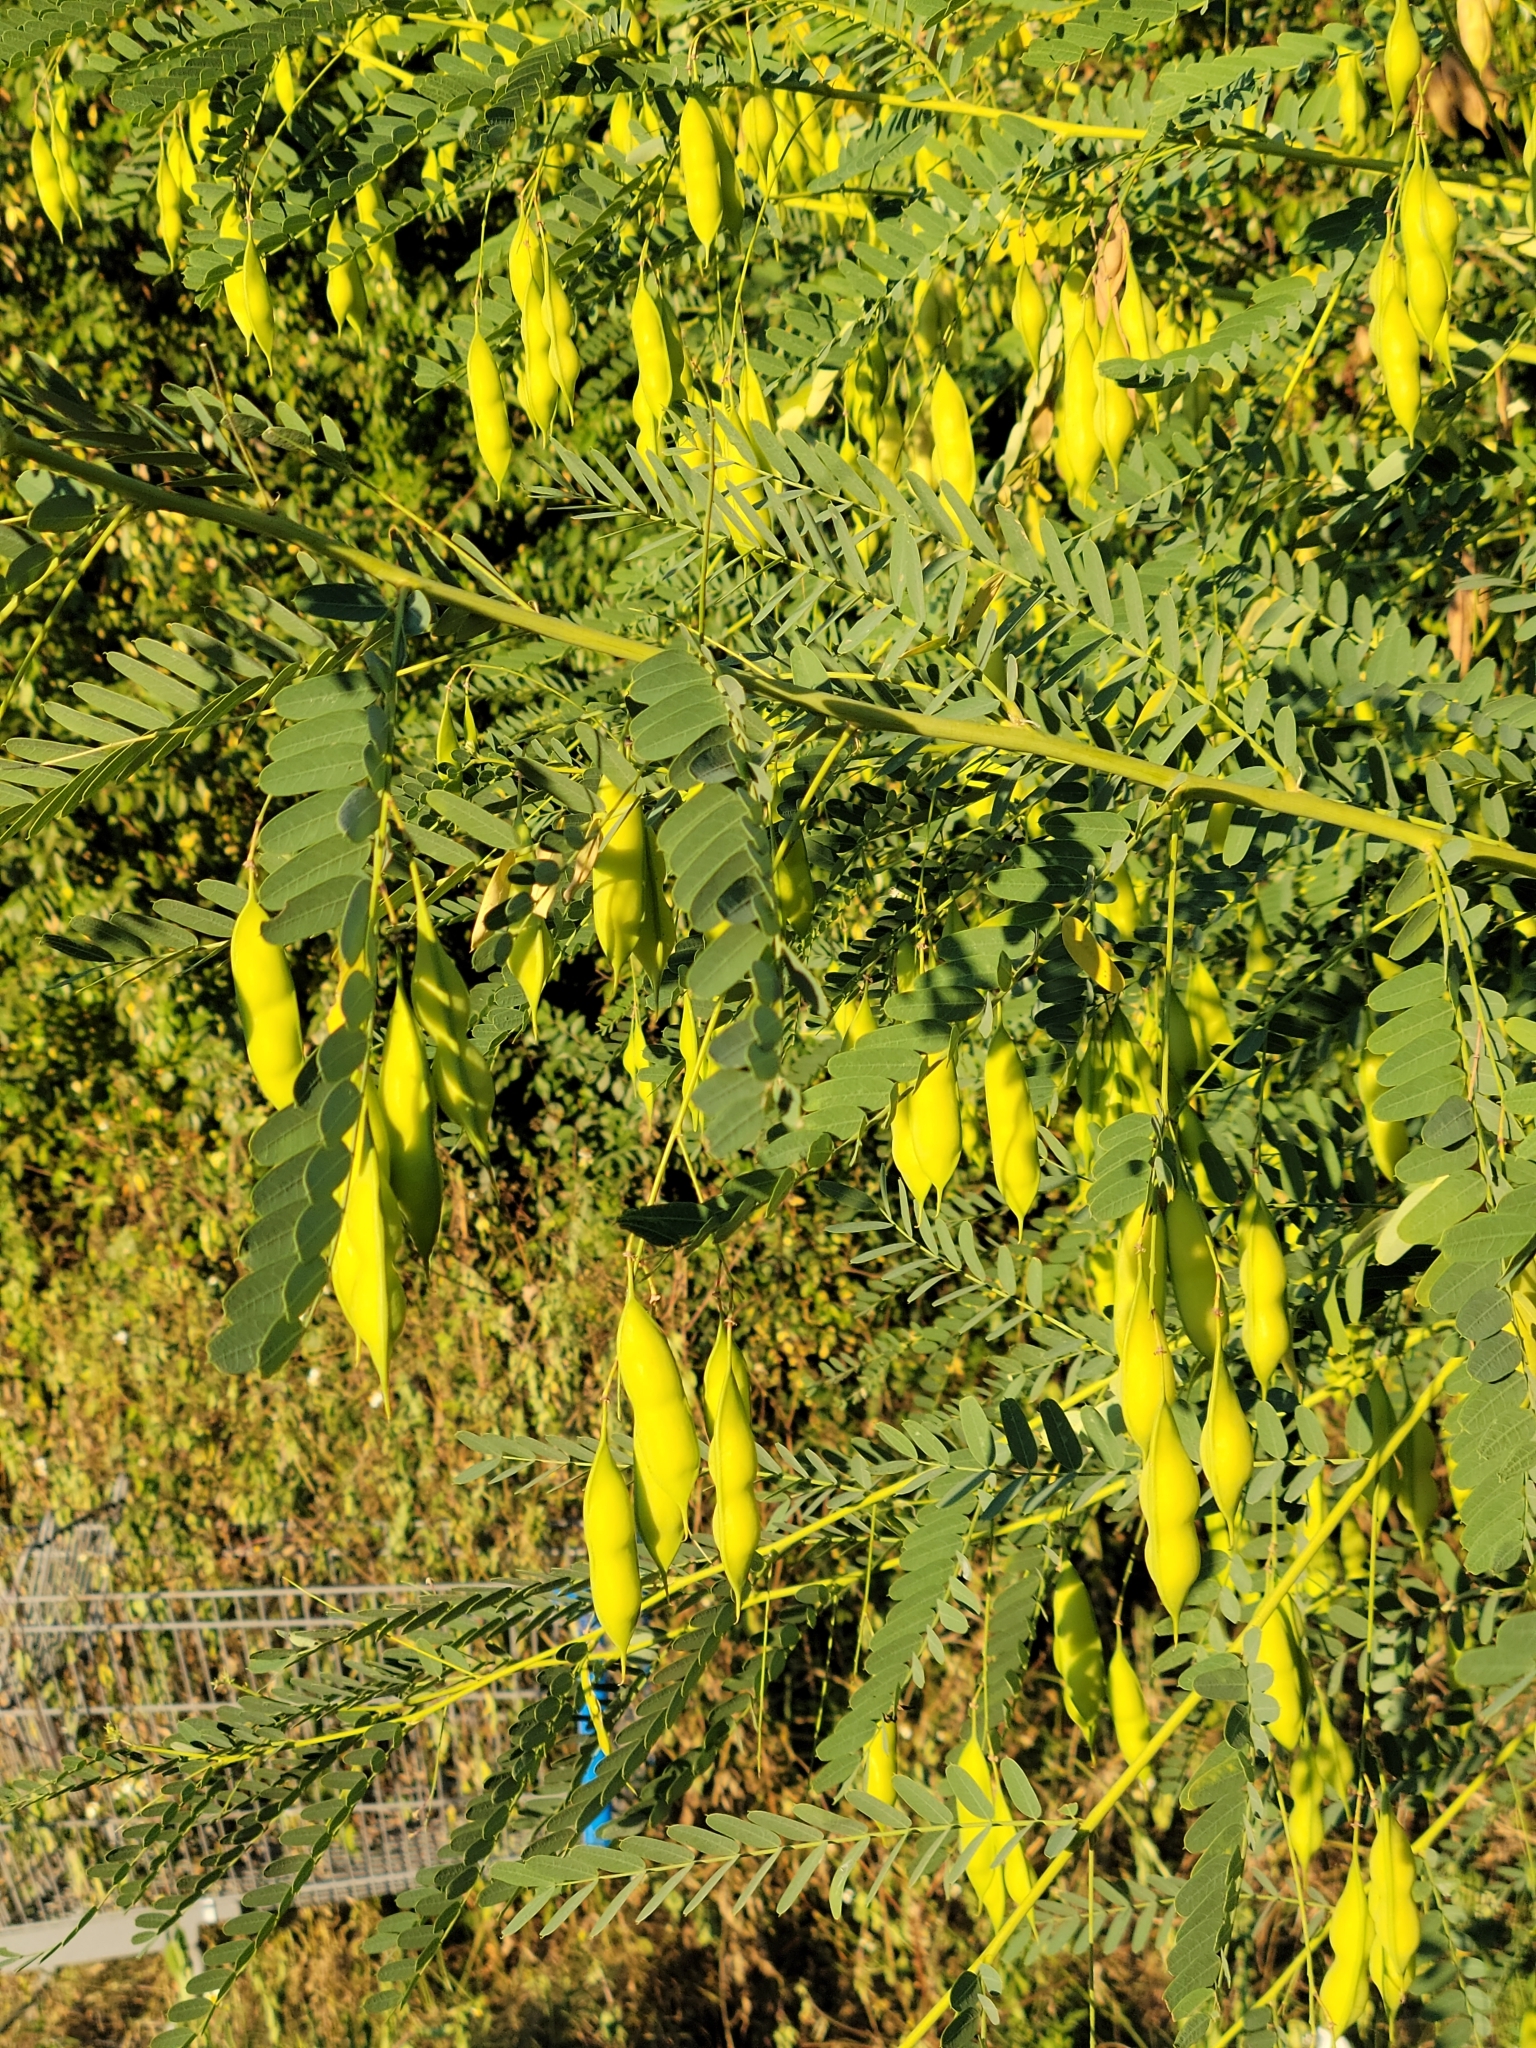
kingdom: Plantae
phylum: Tracheophyta
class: Magnoliopsida
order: Fabales
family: Fabaceae
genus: Sesbania
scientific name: Sesbania vesicaria
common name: Bagpod
